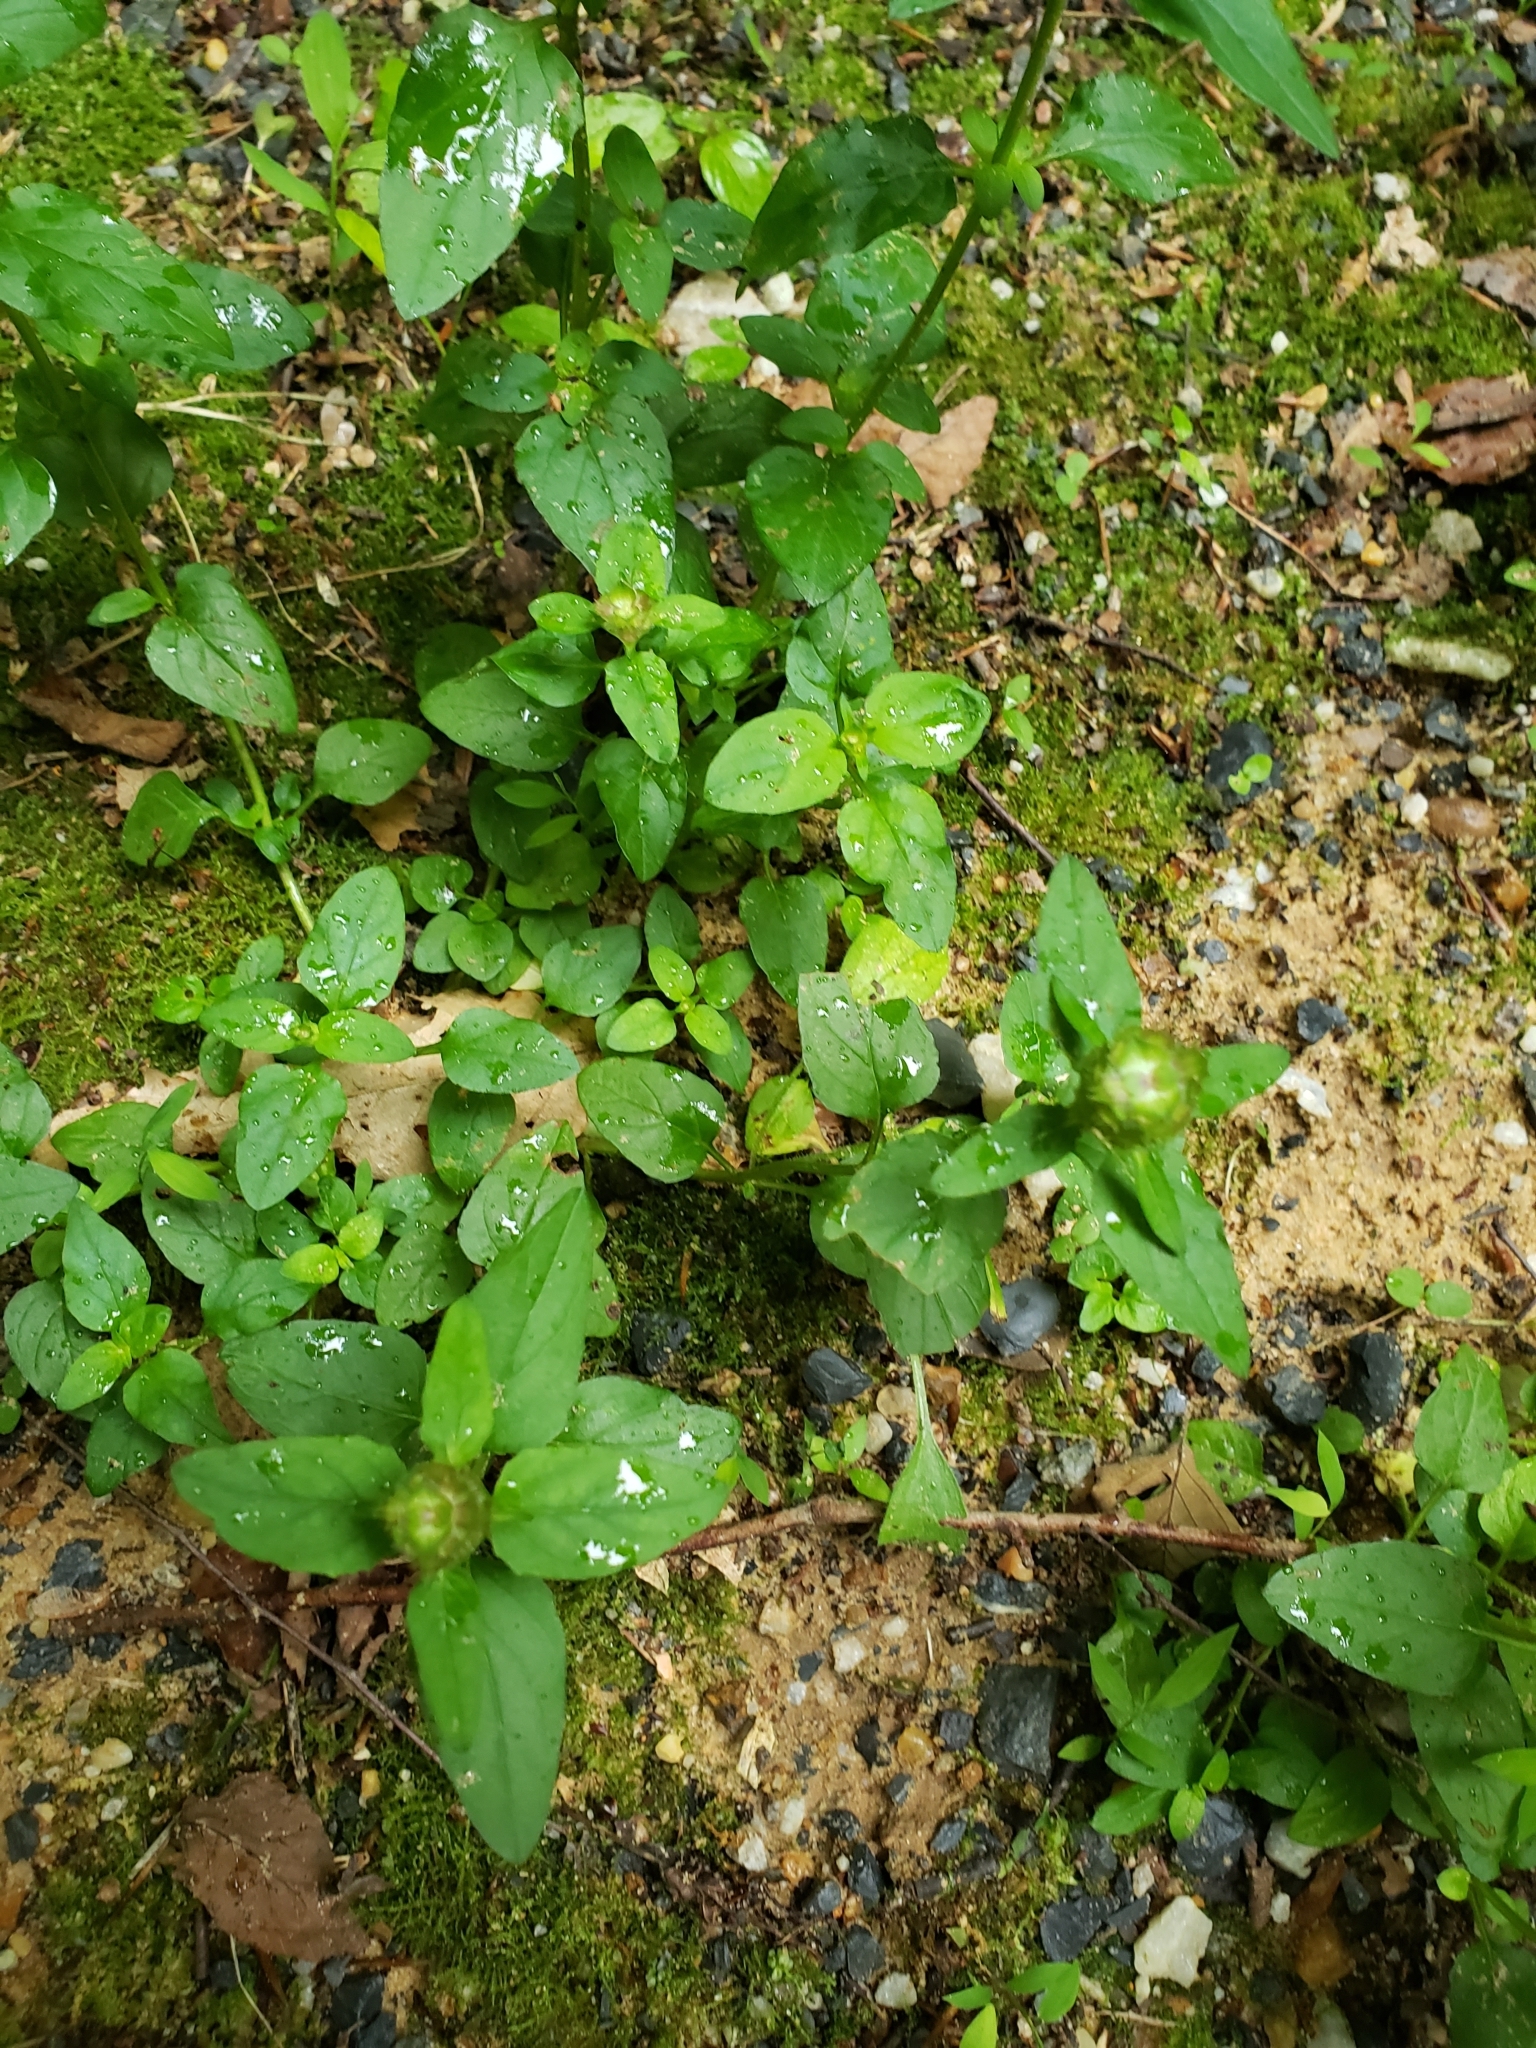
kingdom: Plantae
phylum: Tracheophyta
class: Magnoliopsida
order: Lamiales
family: Lamiaceae
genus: Prunella
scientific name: Prunella vulgaris
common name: Heal-all
